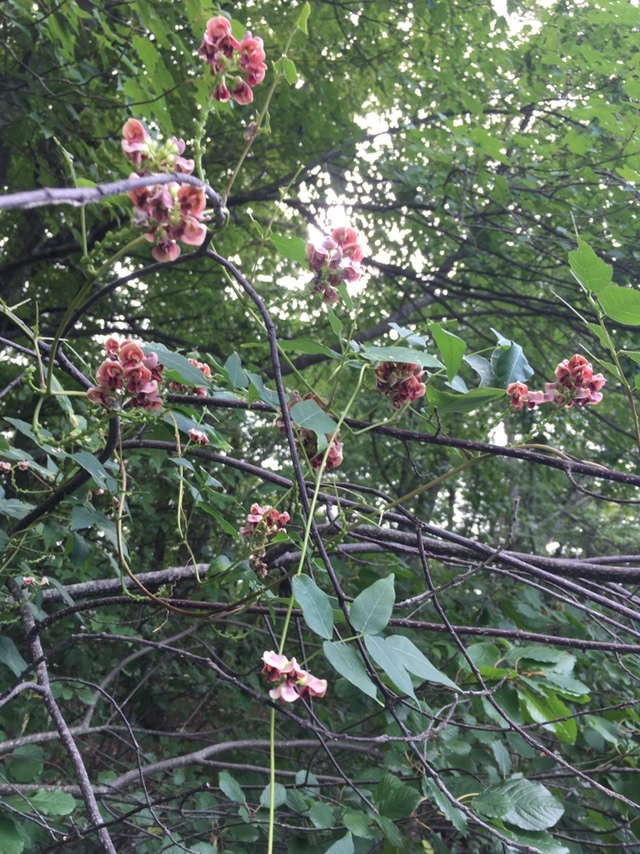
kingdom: Plantae
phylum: Tracheophyta
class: Magnoliopsida
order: Fabales
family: Fabaceae
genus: Apios
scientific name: Apios americana
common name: American potato-bean
